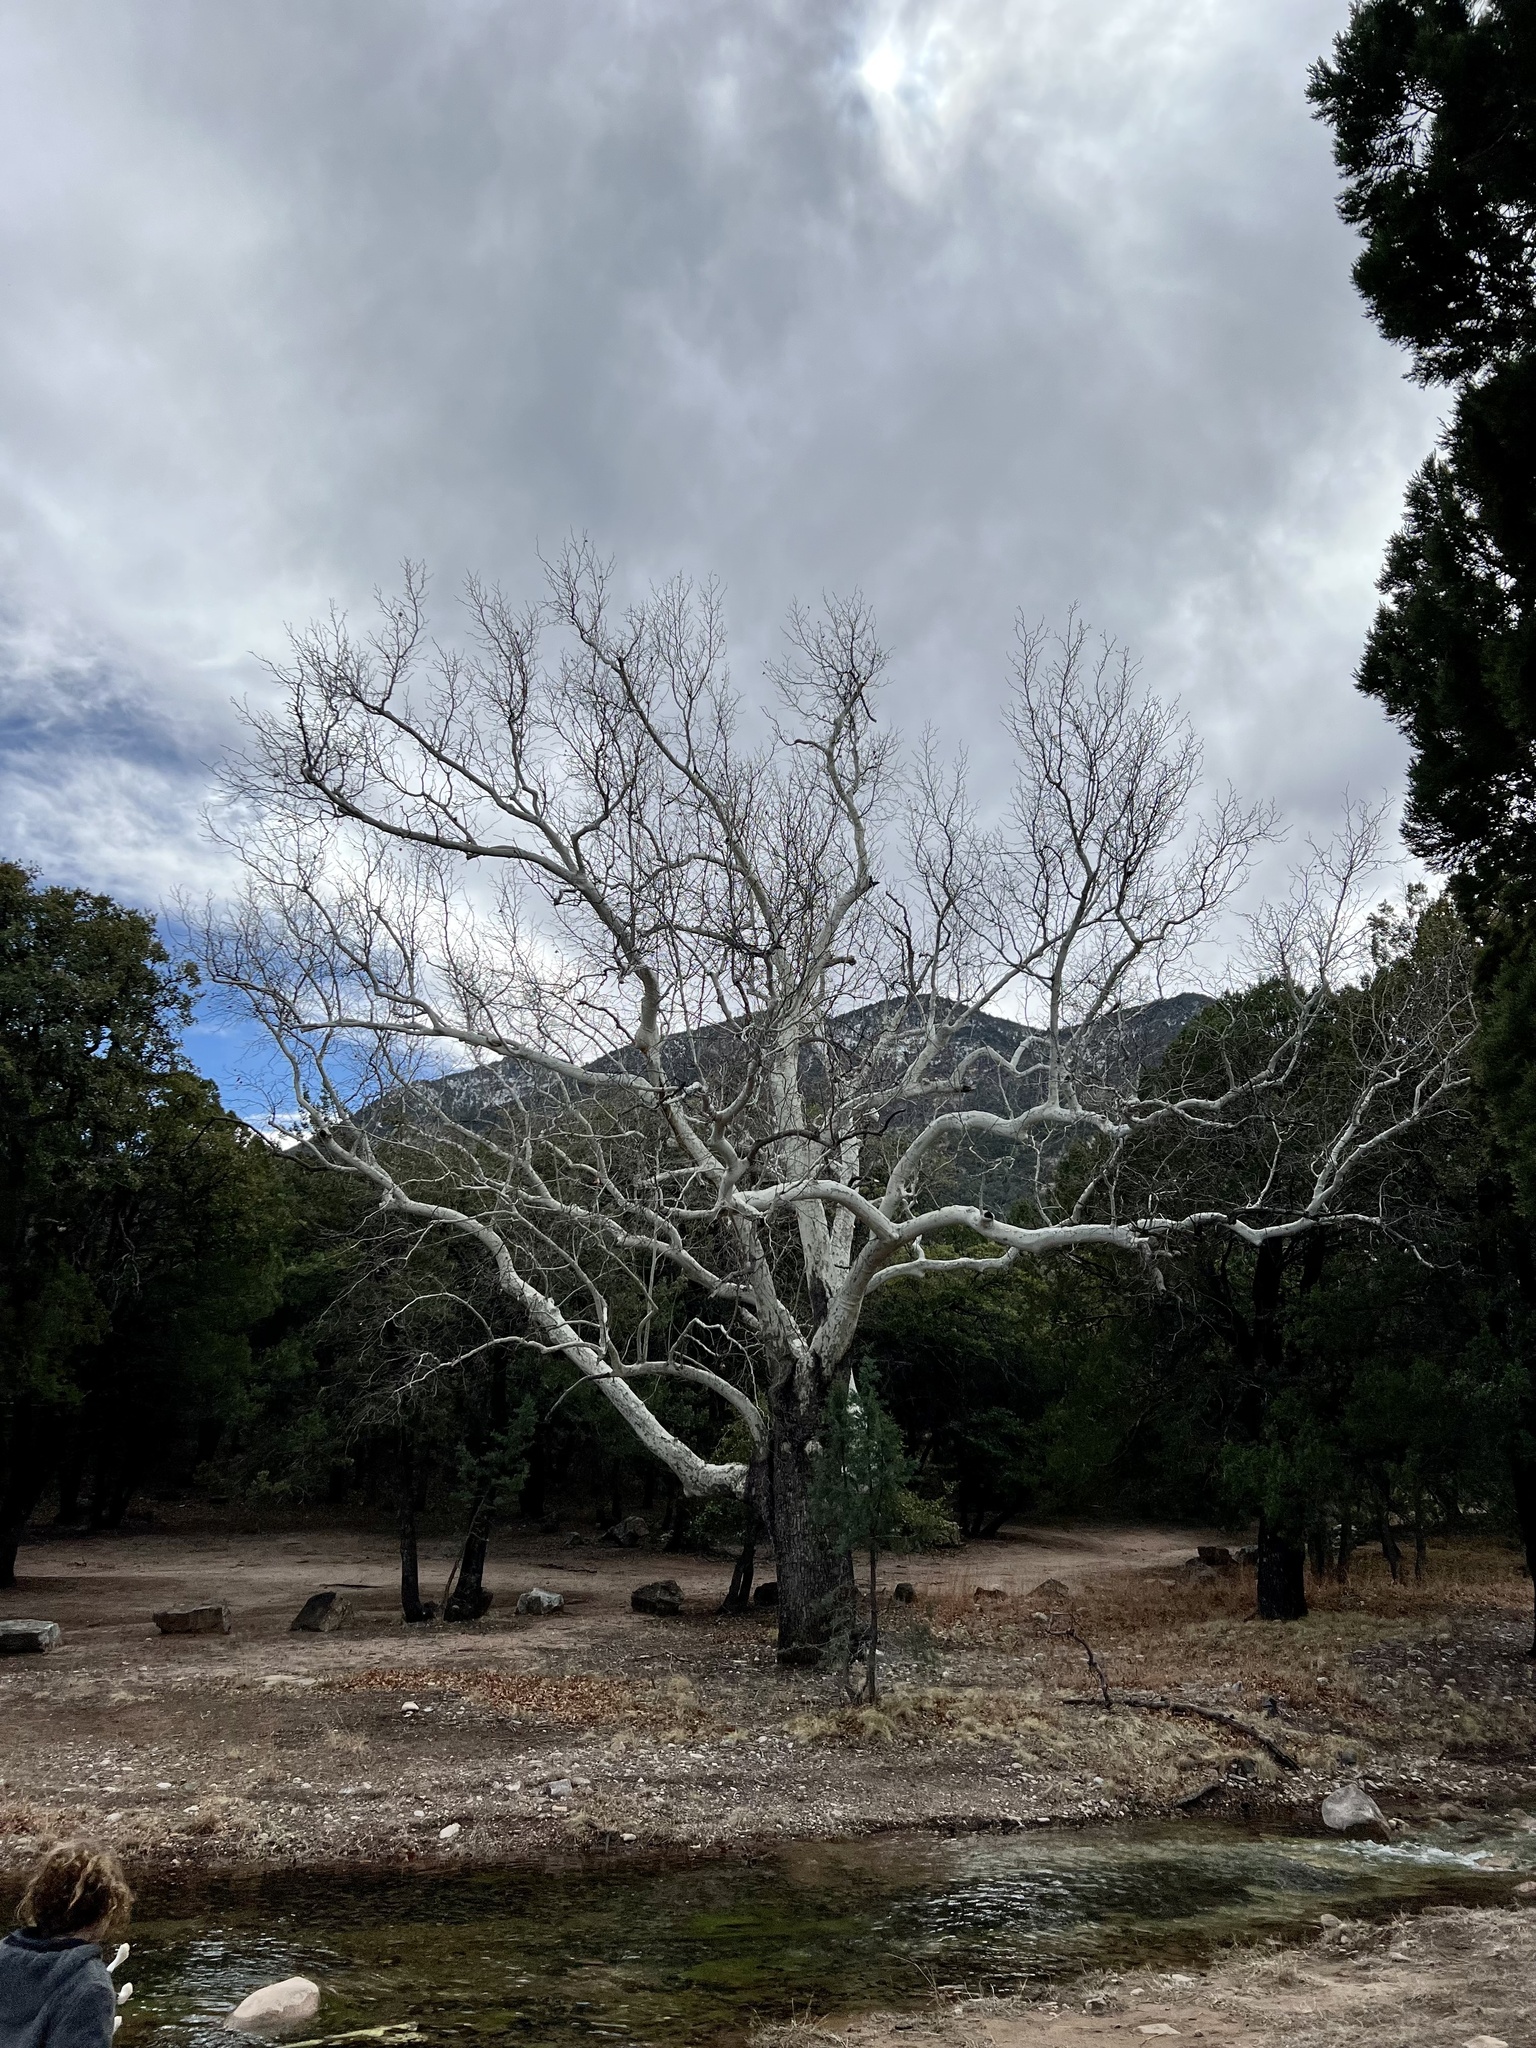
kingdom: Plantae
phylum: Tracheophyta
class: Magnoliopsida
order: Proteales
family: Platanaceae
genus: Platanus
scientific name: Platanus wrightii
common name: Arizona sycamore
